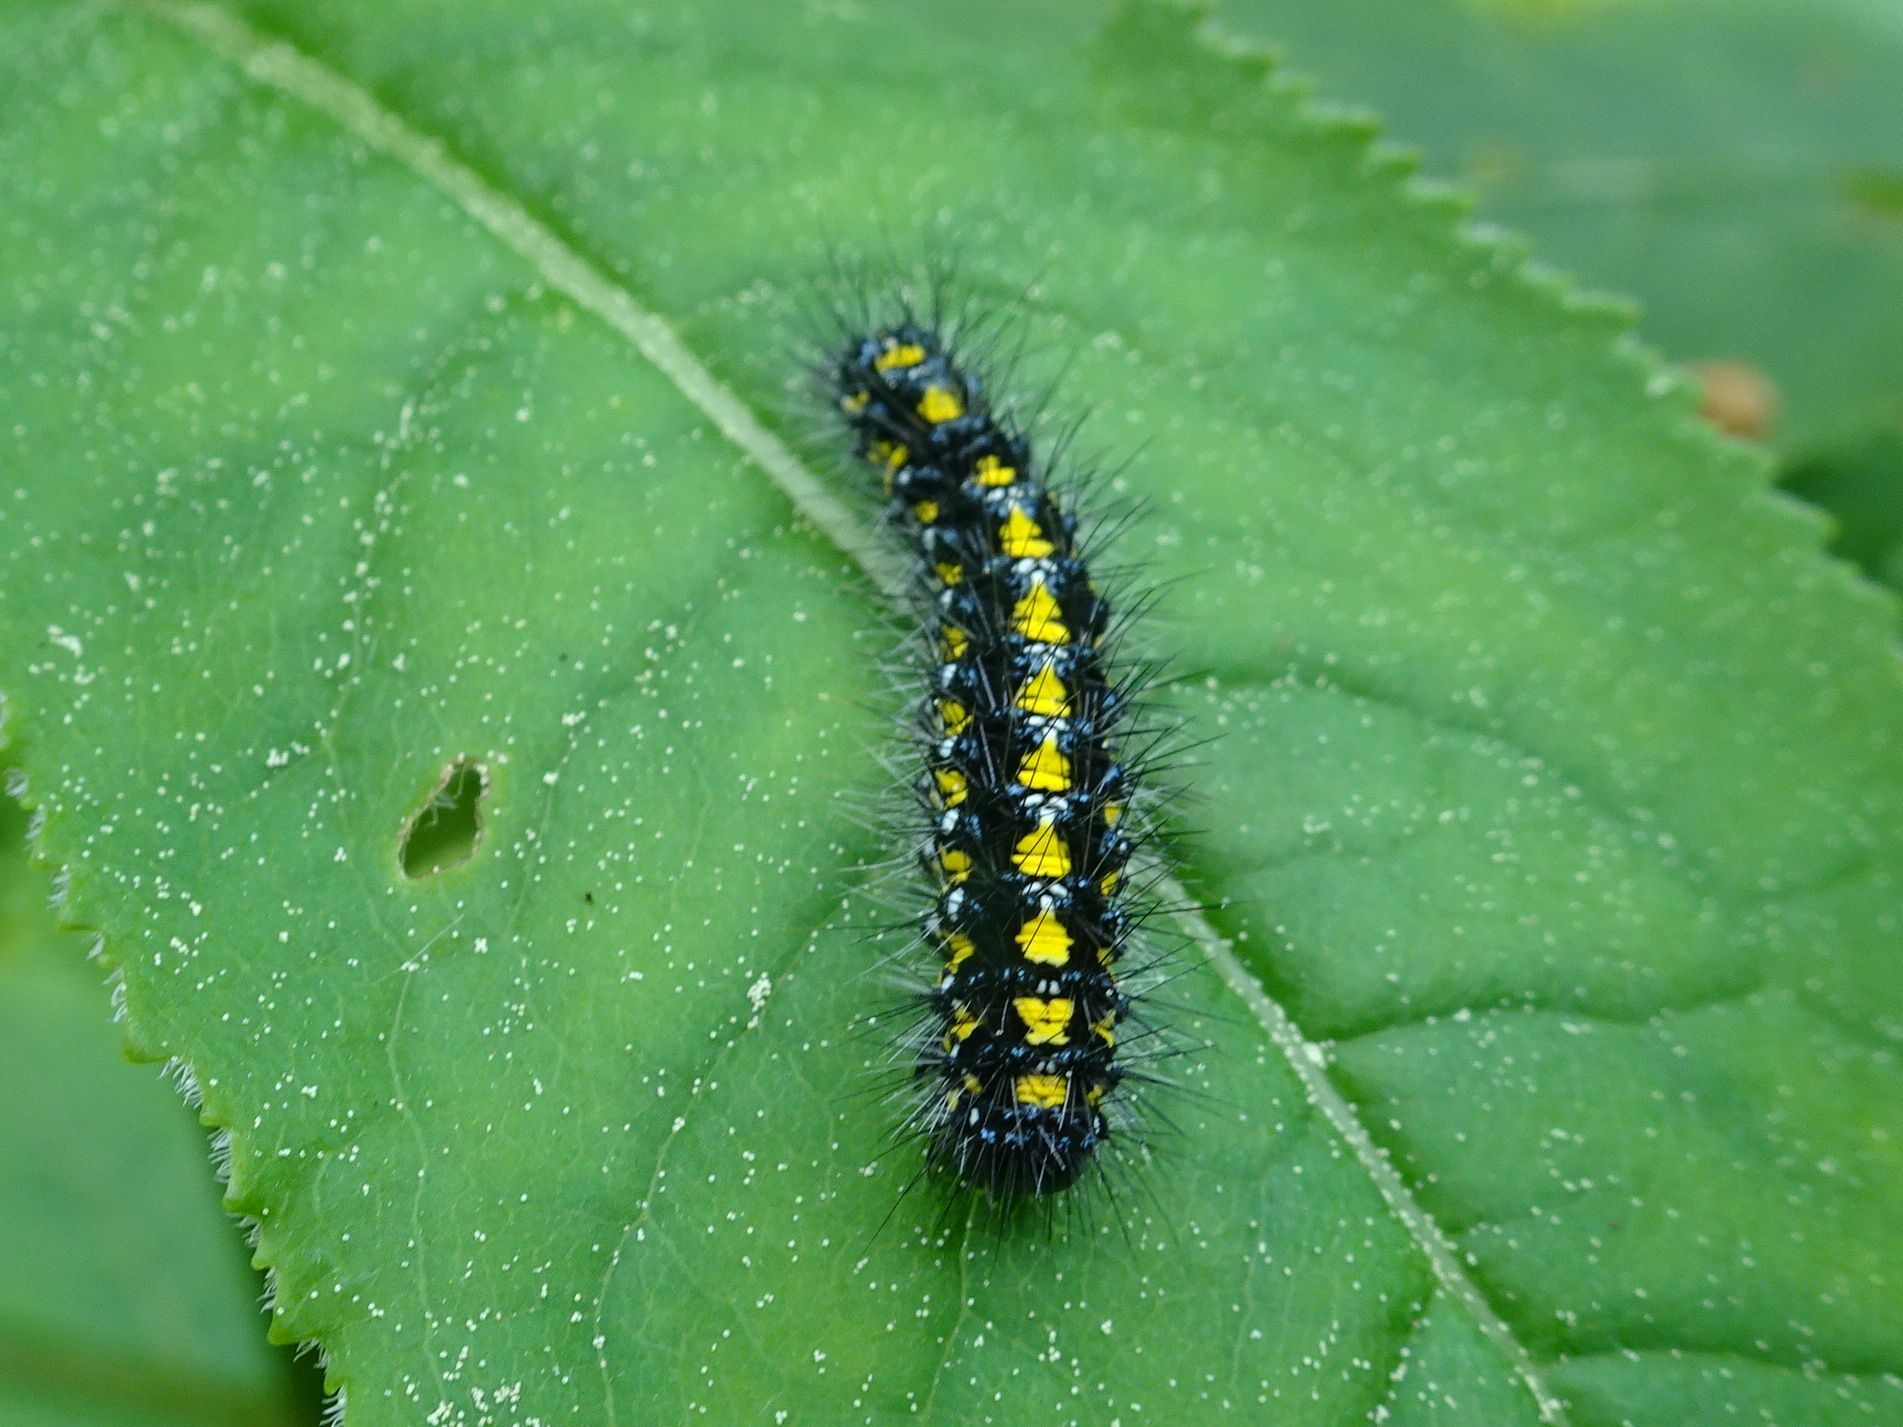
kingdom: Animalia
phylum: Arthropoda
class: Insecta
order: Lepidoptera
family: Erebidae
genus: Callimorpha
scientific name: Callimorpha dominula
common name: Scarlet tiger
